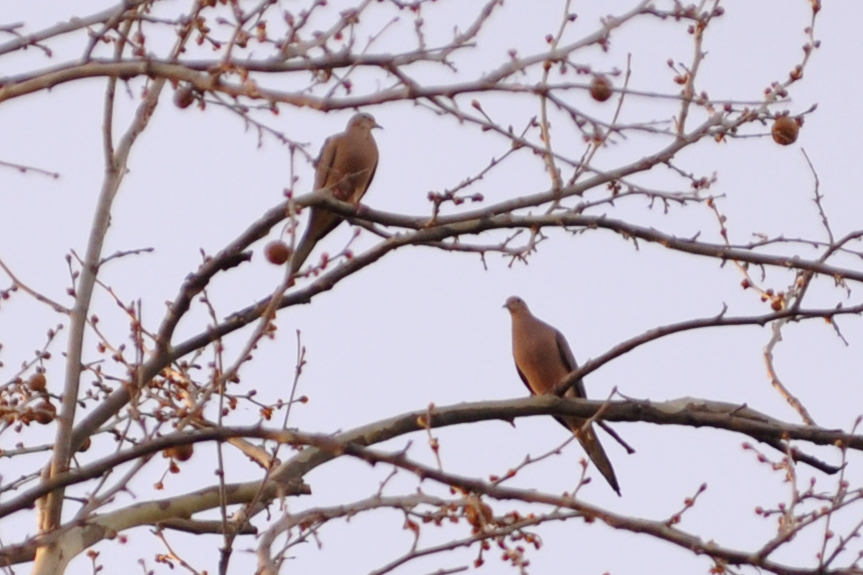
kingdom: Animalia
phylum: Chordata
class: Aves
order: Columbiformes
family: Columbidae
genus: Zenaida
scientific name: Zenaida macroura
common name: Mourning dove
